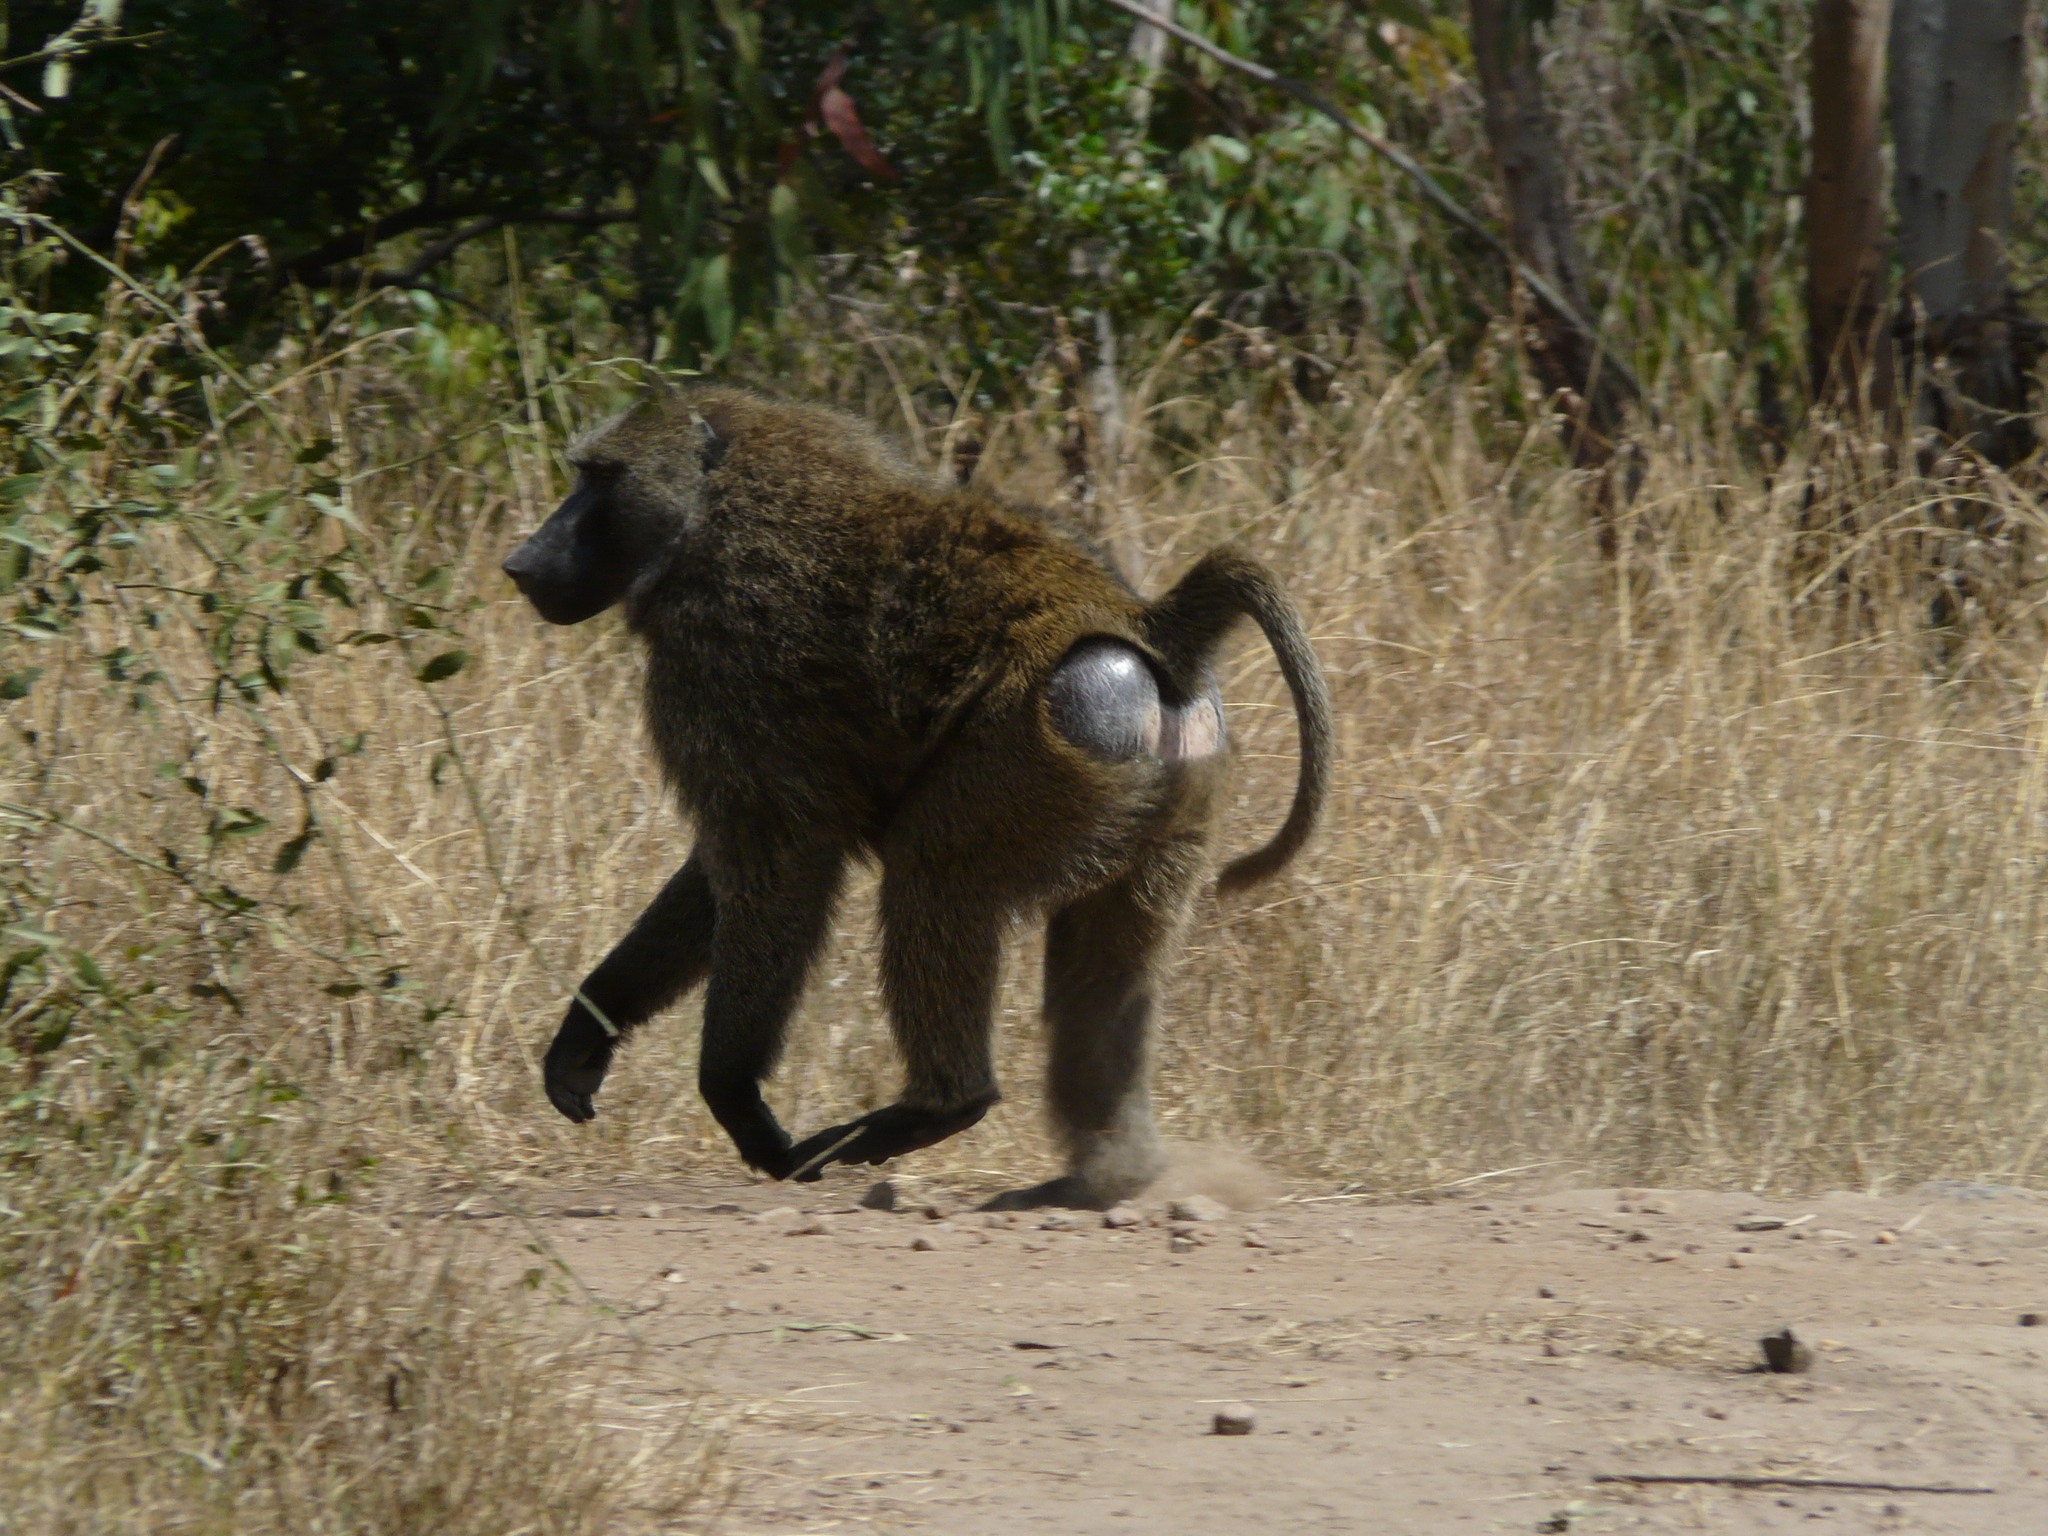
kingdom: Animalia
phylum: Chordata
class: Mammalia
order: Primates
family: Cercopithecidae
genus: Papio
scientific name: Papio anubis
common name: Olive baboon
